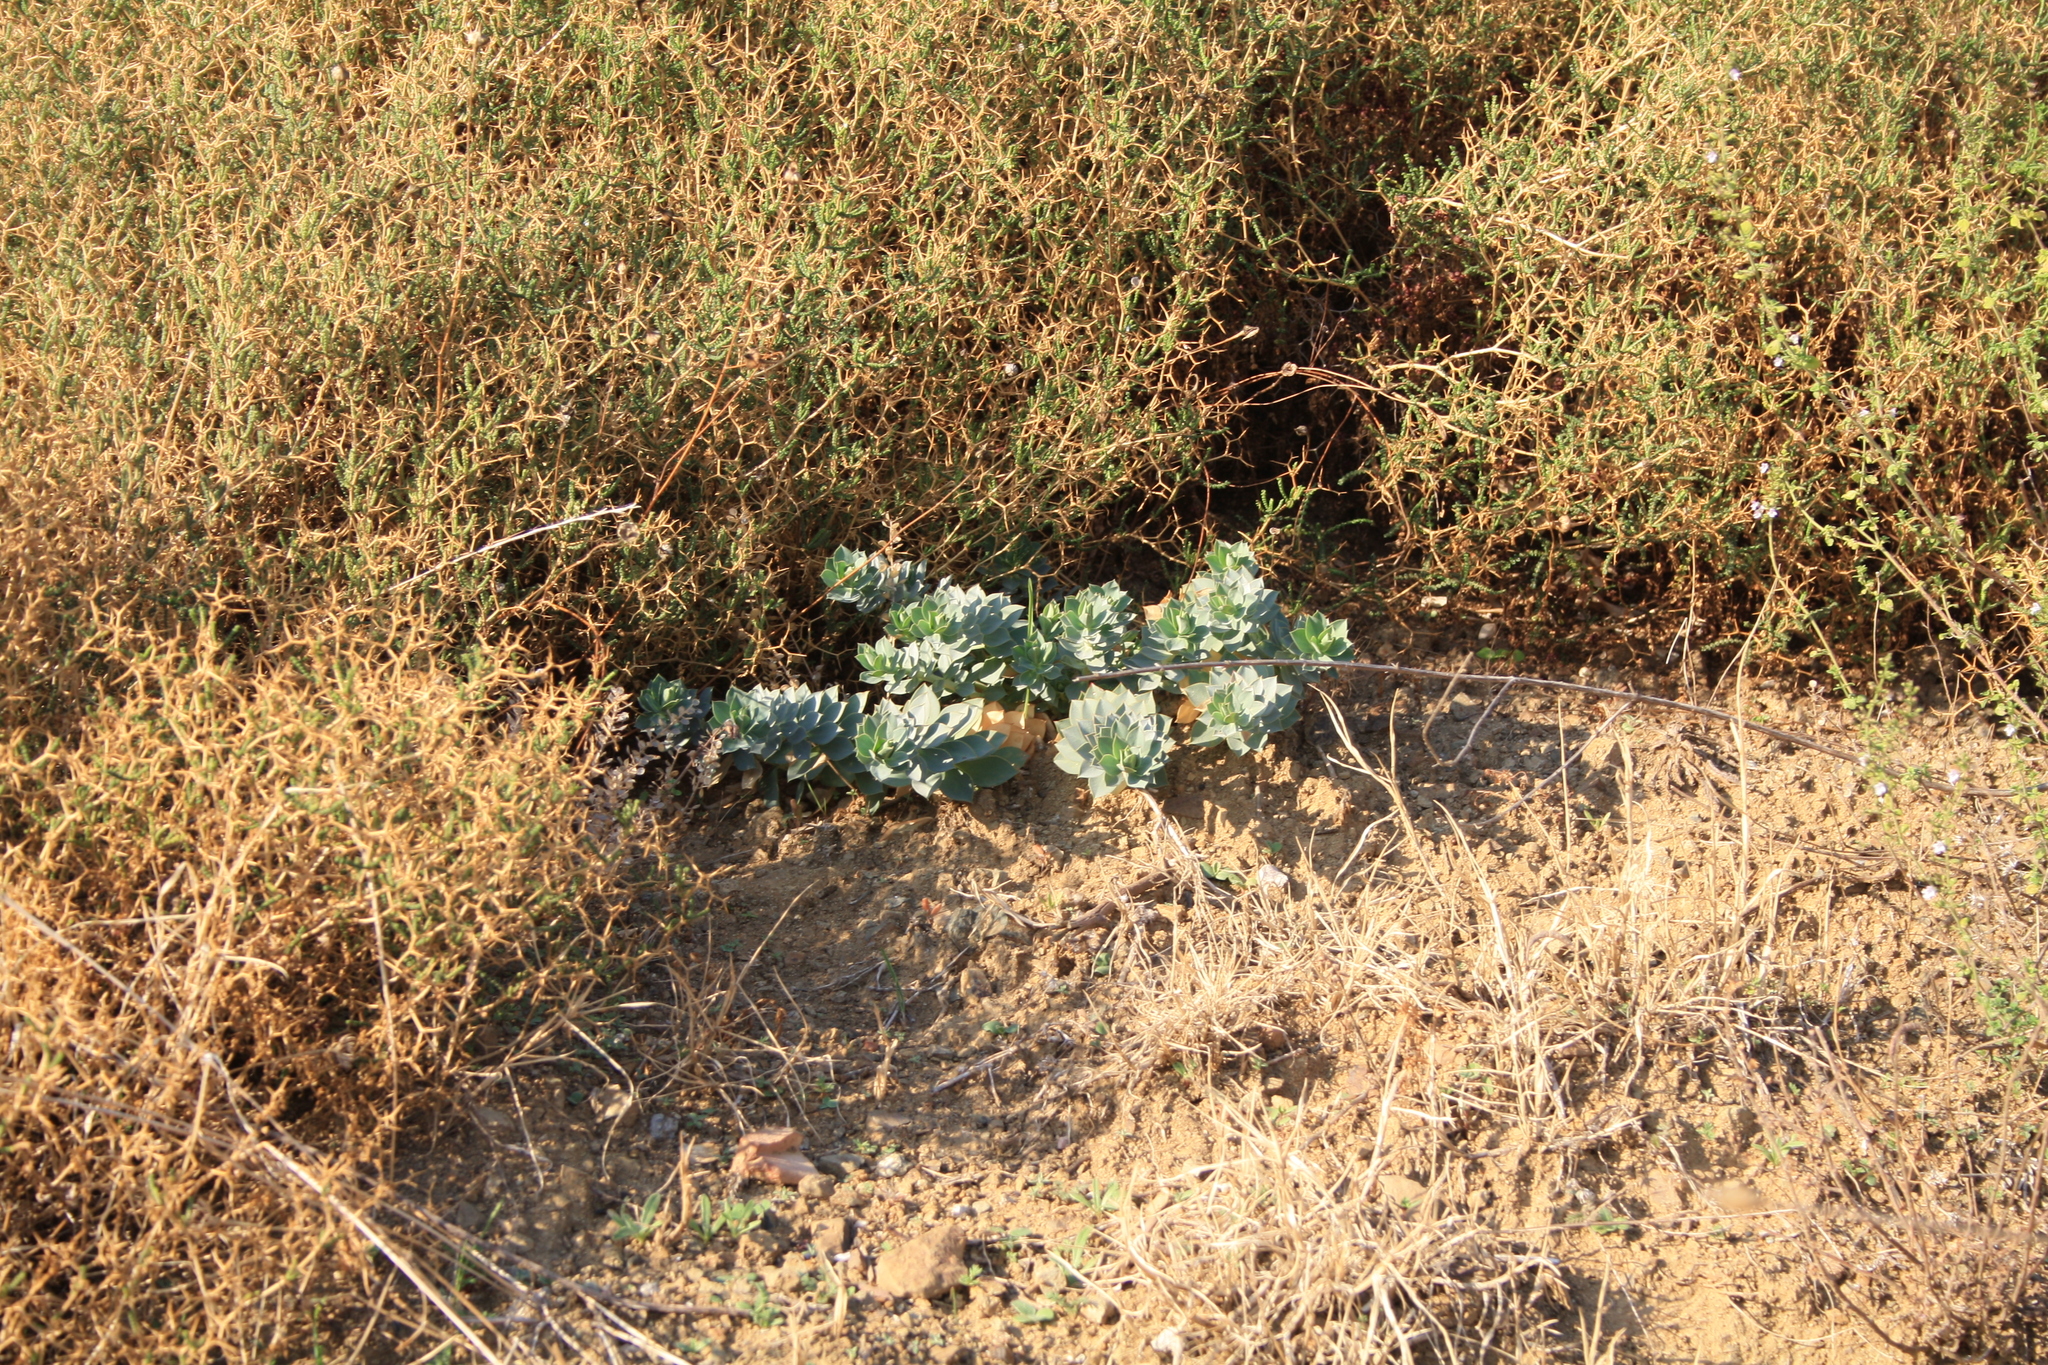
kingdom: Plantae
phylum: Tracheophyta
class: Magnoliopsida
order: Malpighiales
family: Euphorbiaceae
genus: Euphorbia
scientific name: Euphorbia myrsinites
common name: Myrtle spurge
